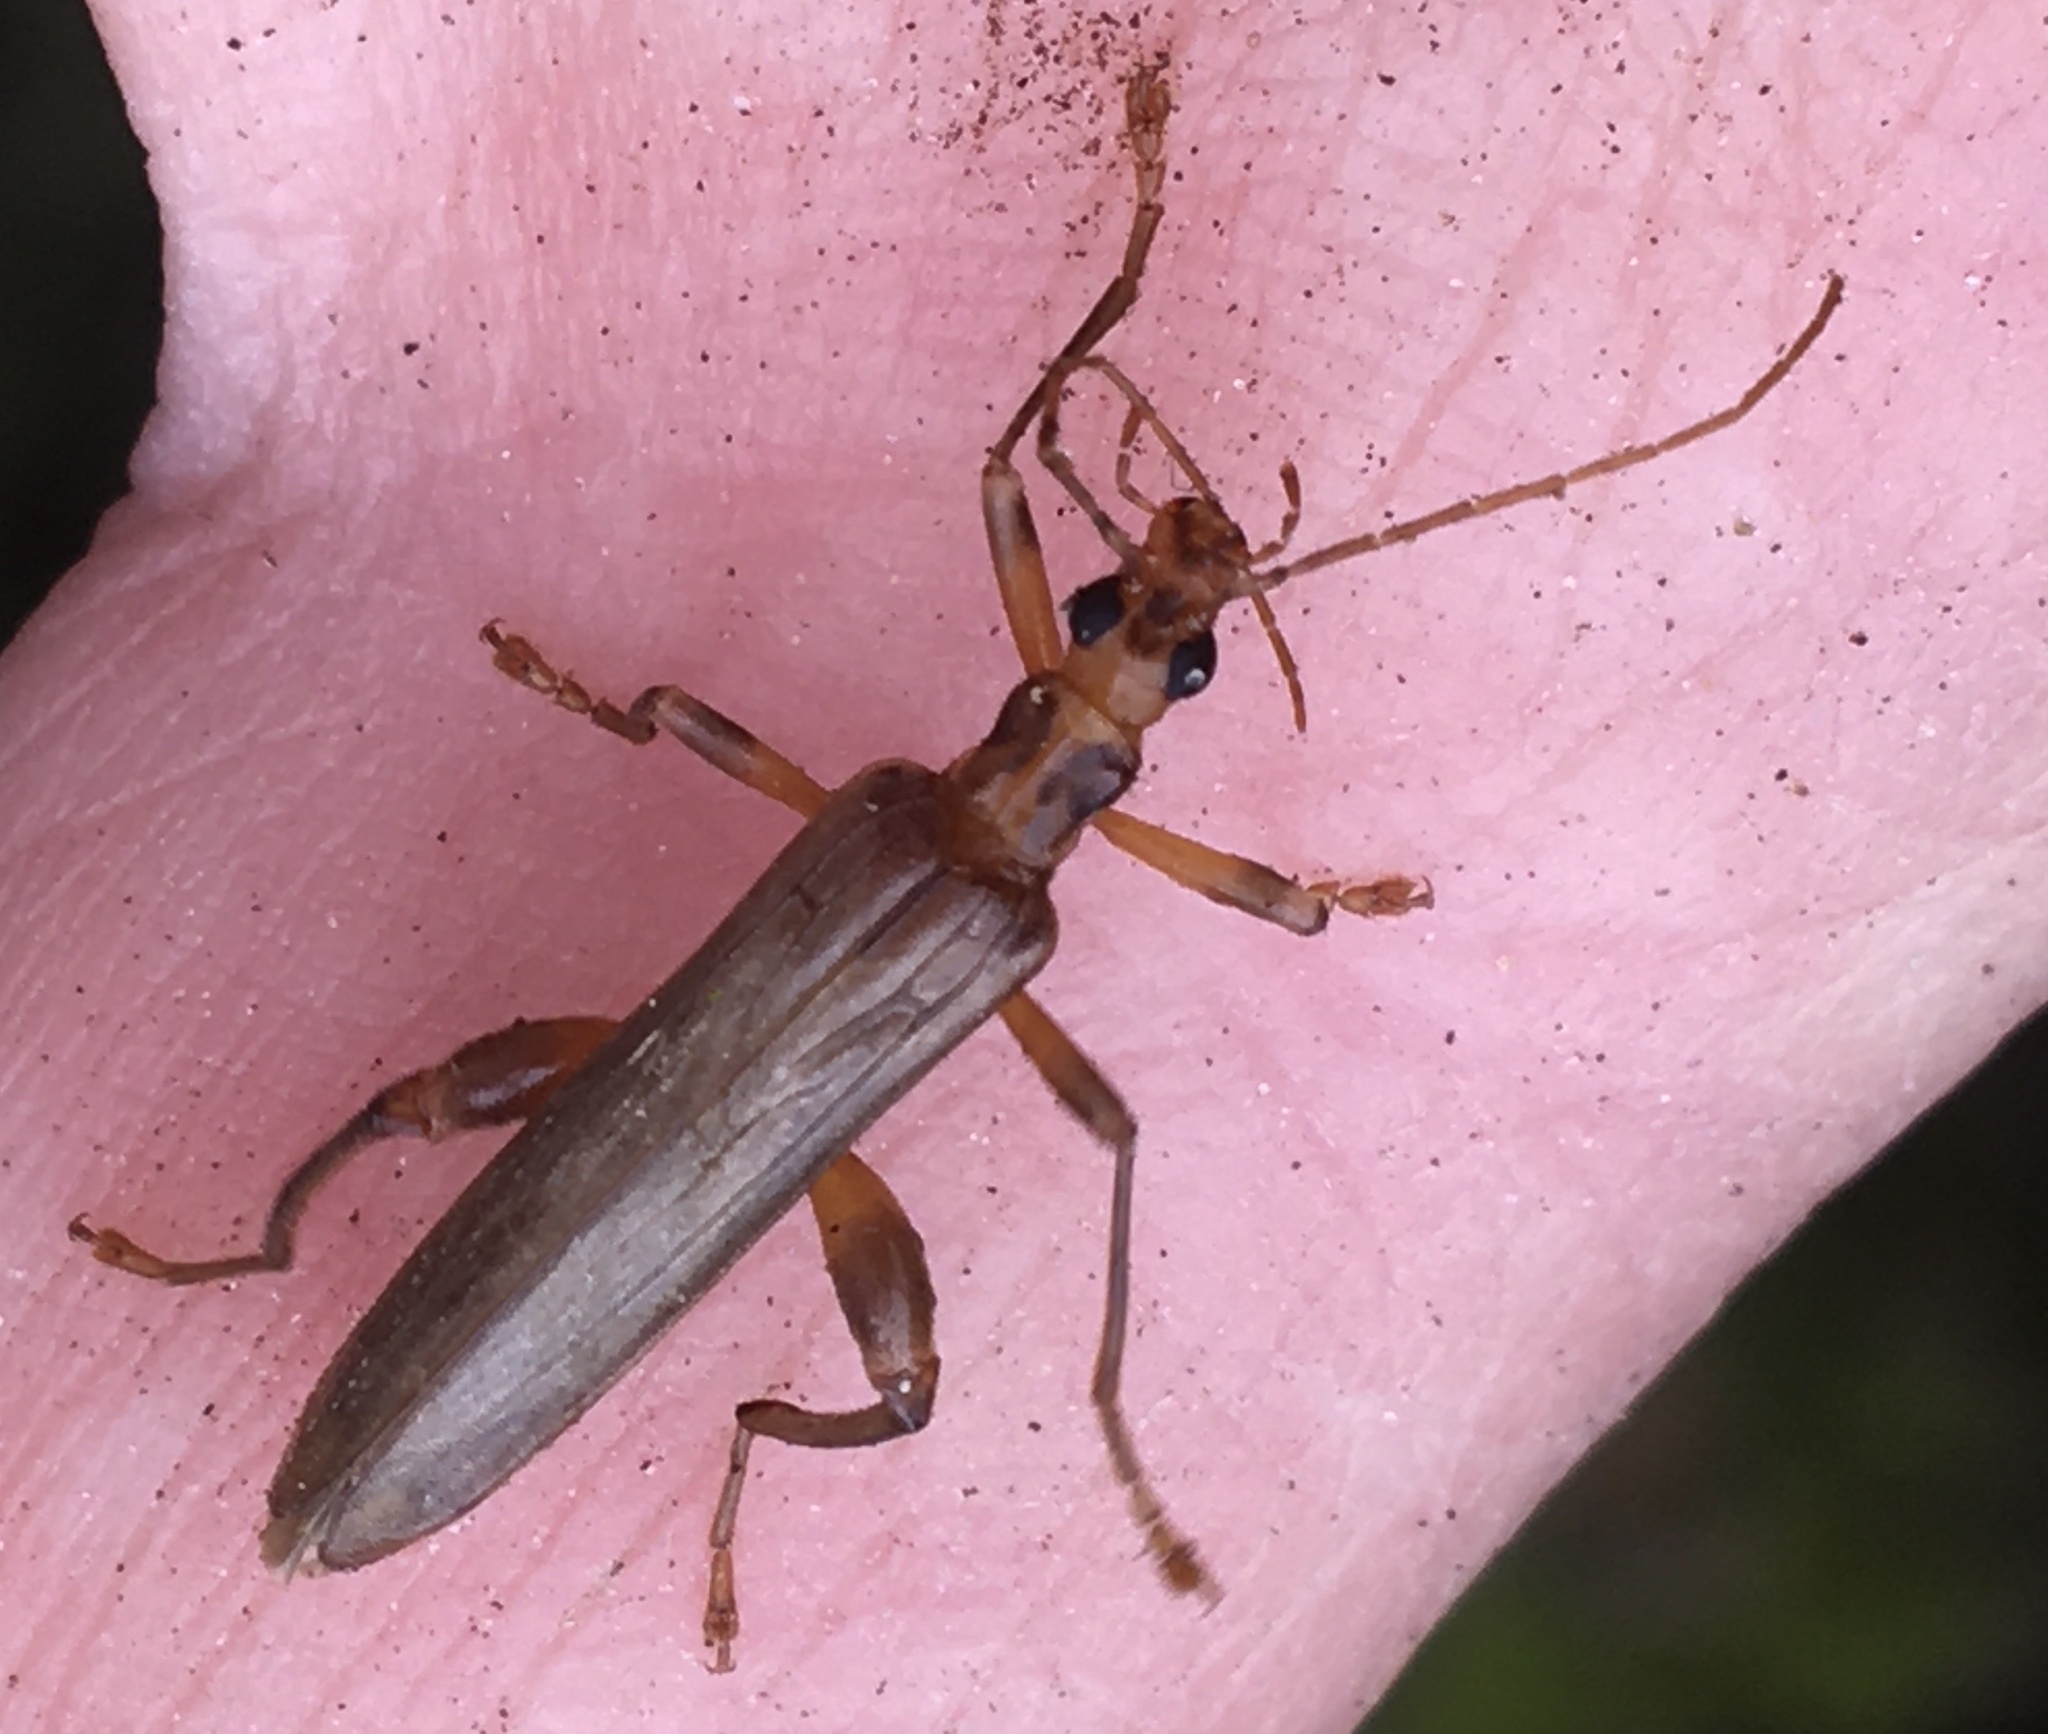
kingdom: Animalia
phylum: Arthropoda
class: Insecta
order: Coleoptera
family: Oedemeridae
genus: Oedemera
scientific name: Oedemera femoralis
